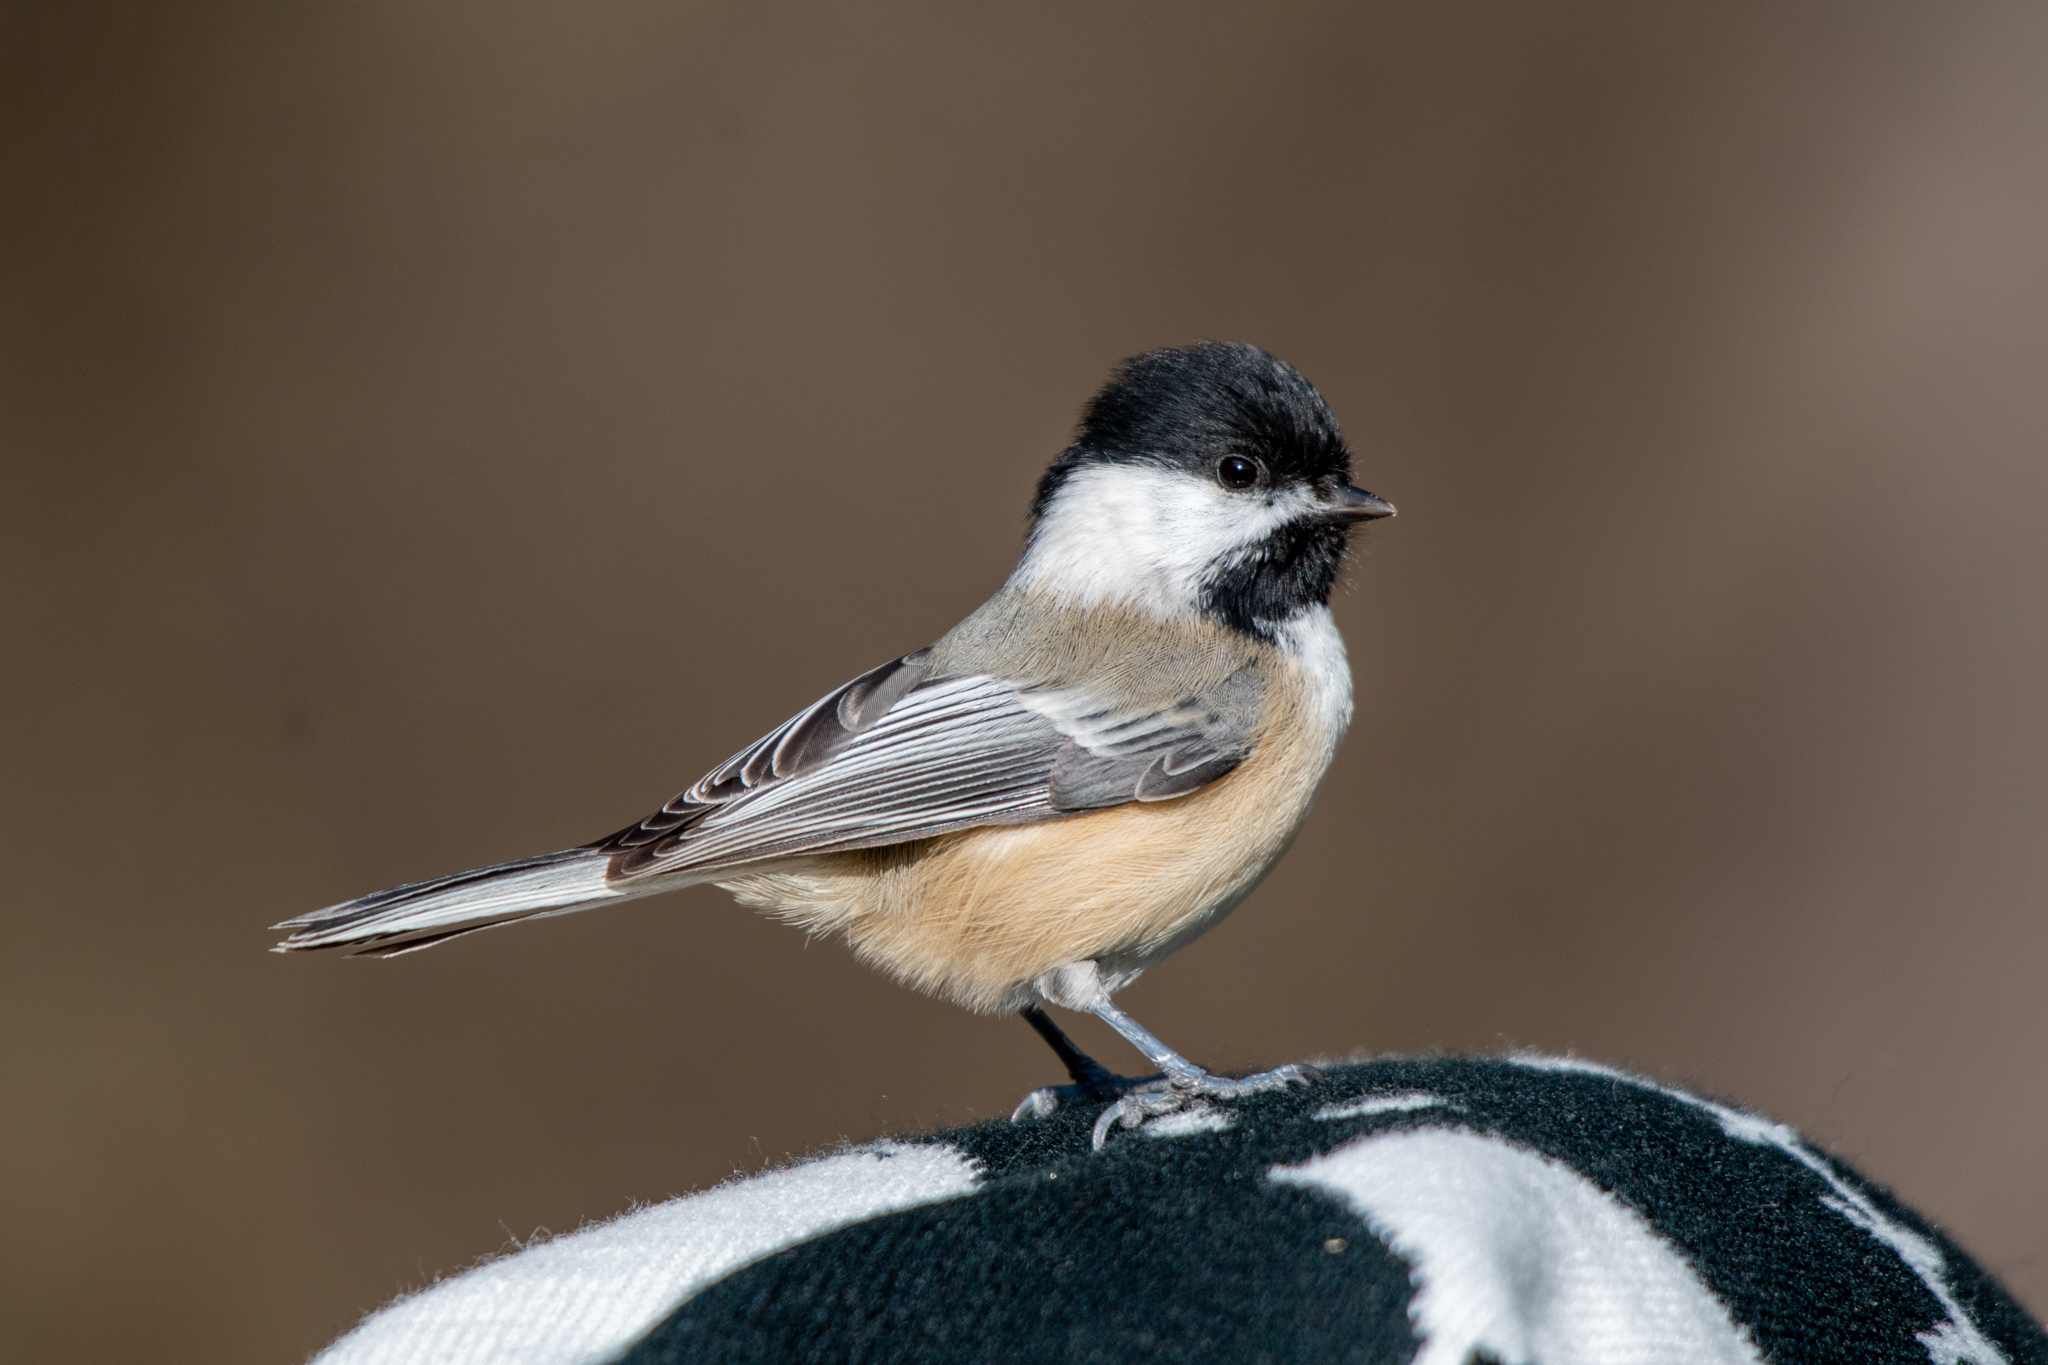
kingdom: Animalia
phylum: Chordata
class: Aves
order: Passeriformes
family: Paridae
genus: Poecile
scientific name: Poecile atricapillus
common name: Black-capped chickadee
